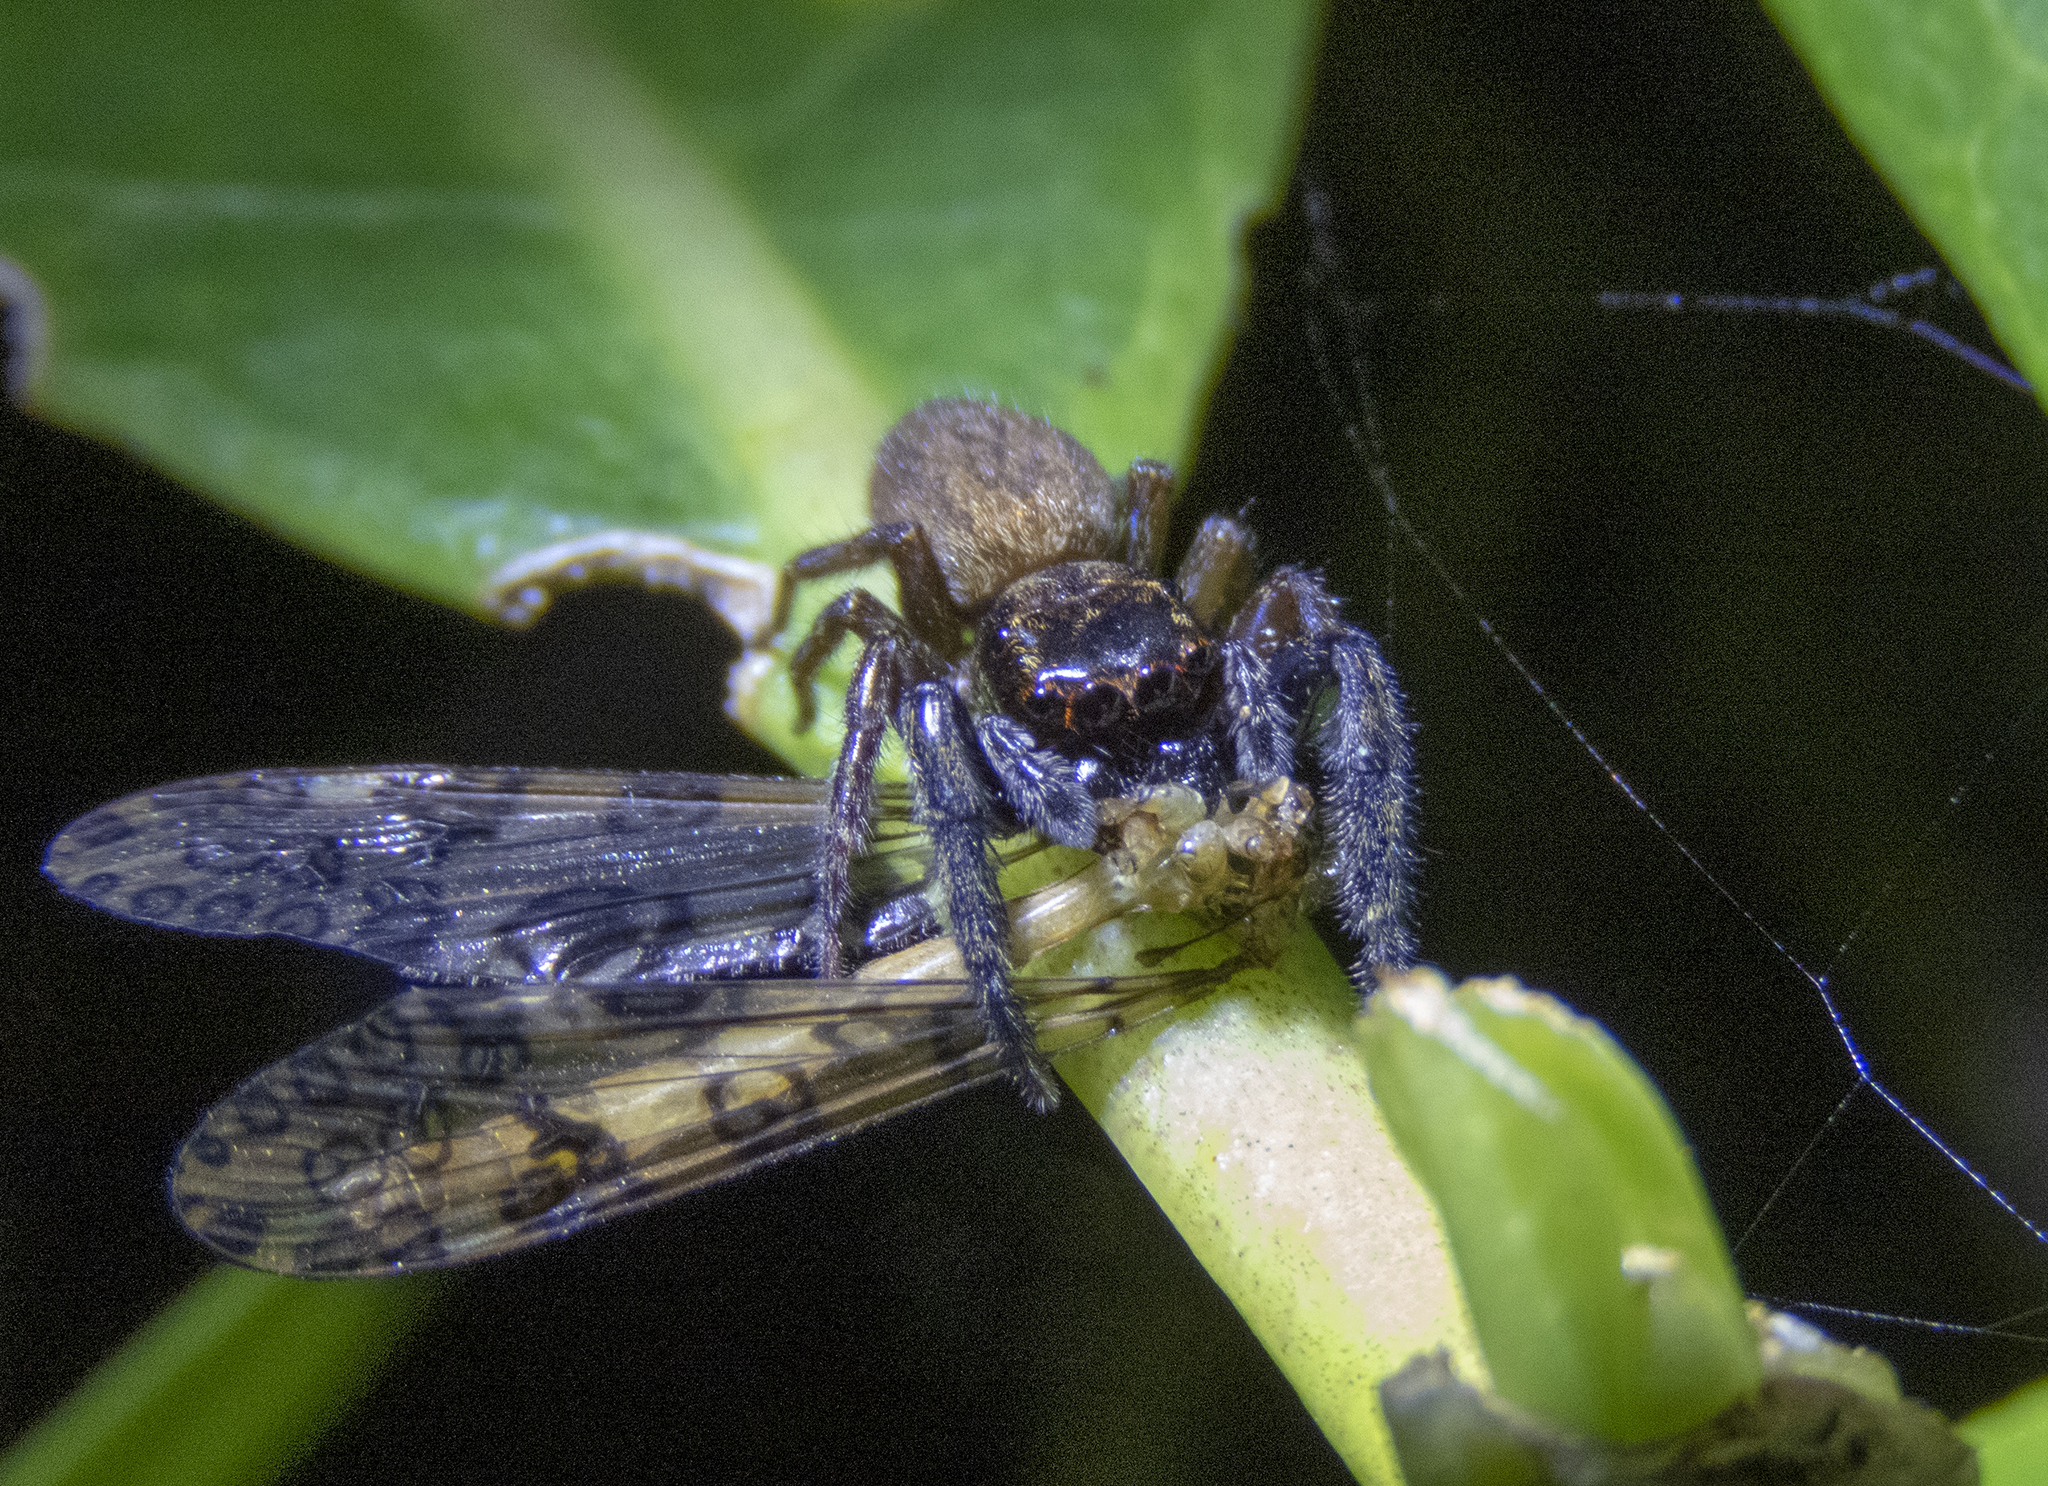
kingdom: Animalia
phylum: Arthropoda
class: Arachnida
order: Araneae
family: Salticidae
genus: Trite
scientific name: Trite auricoma
